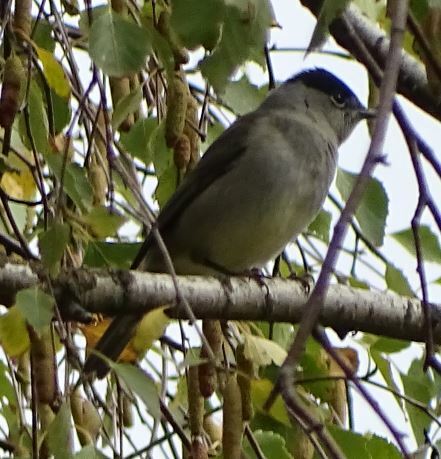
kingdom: Animalia
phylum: Chordata
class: Aves
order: Passeriformes
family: Sylviidae
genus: Sylvia
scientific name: Sylvia atricapilla
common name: Eurasian blackcap
